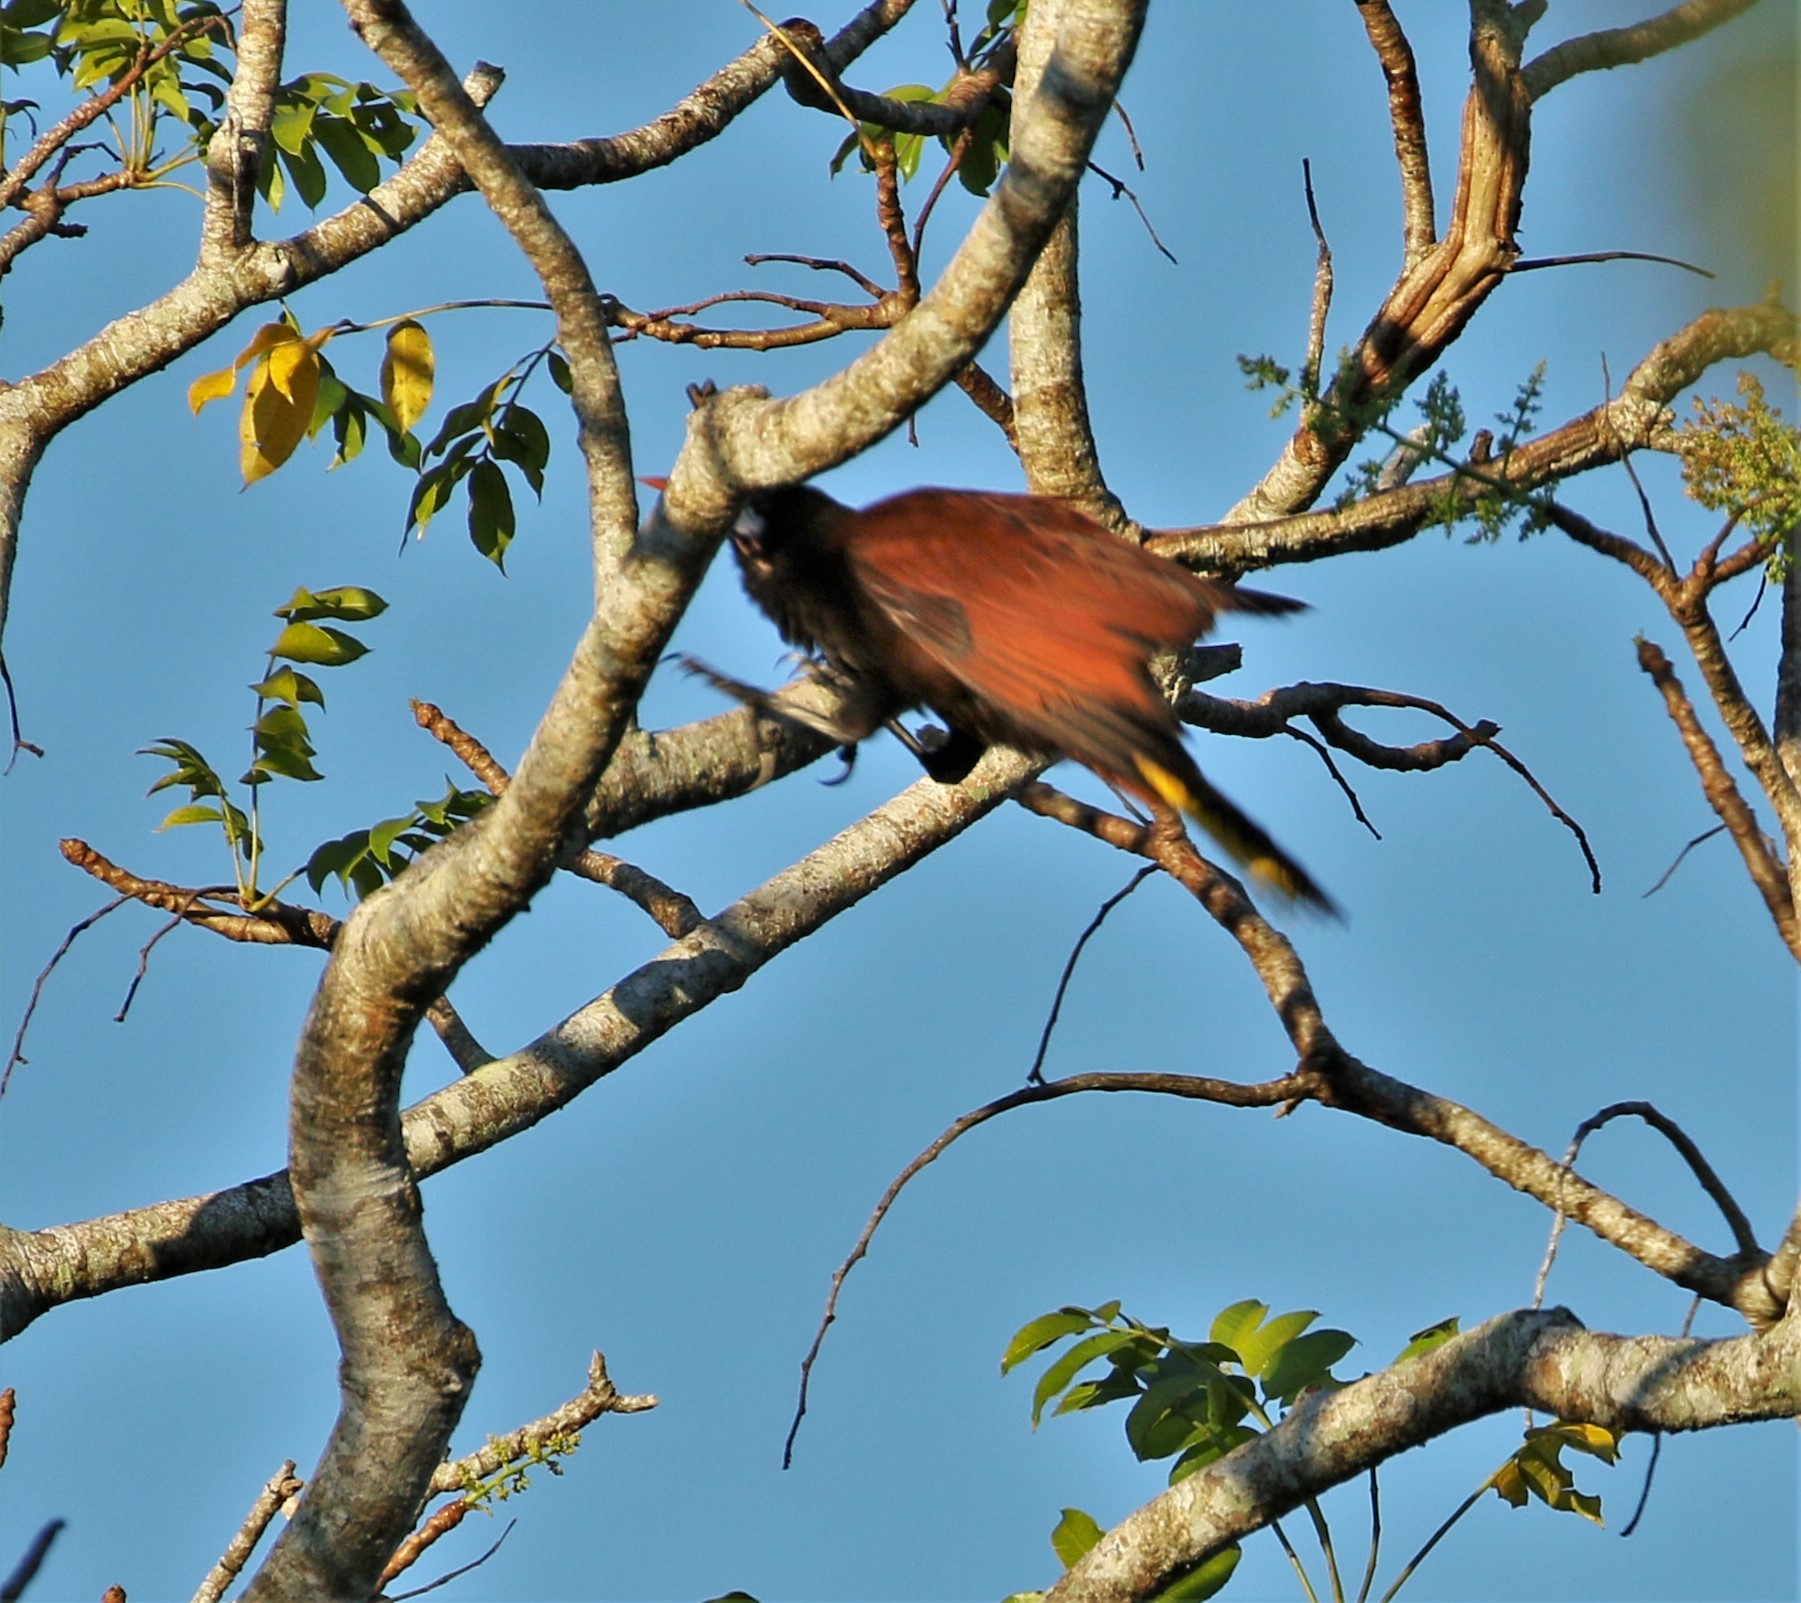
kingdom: Animalia
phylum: Chordata
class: Aves
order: Passeriformes
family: Icteridae
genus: Psarocolius
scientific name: Psarocolius montezuma
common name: Montezuma oropendola
